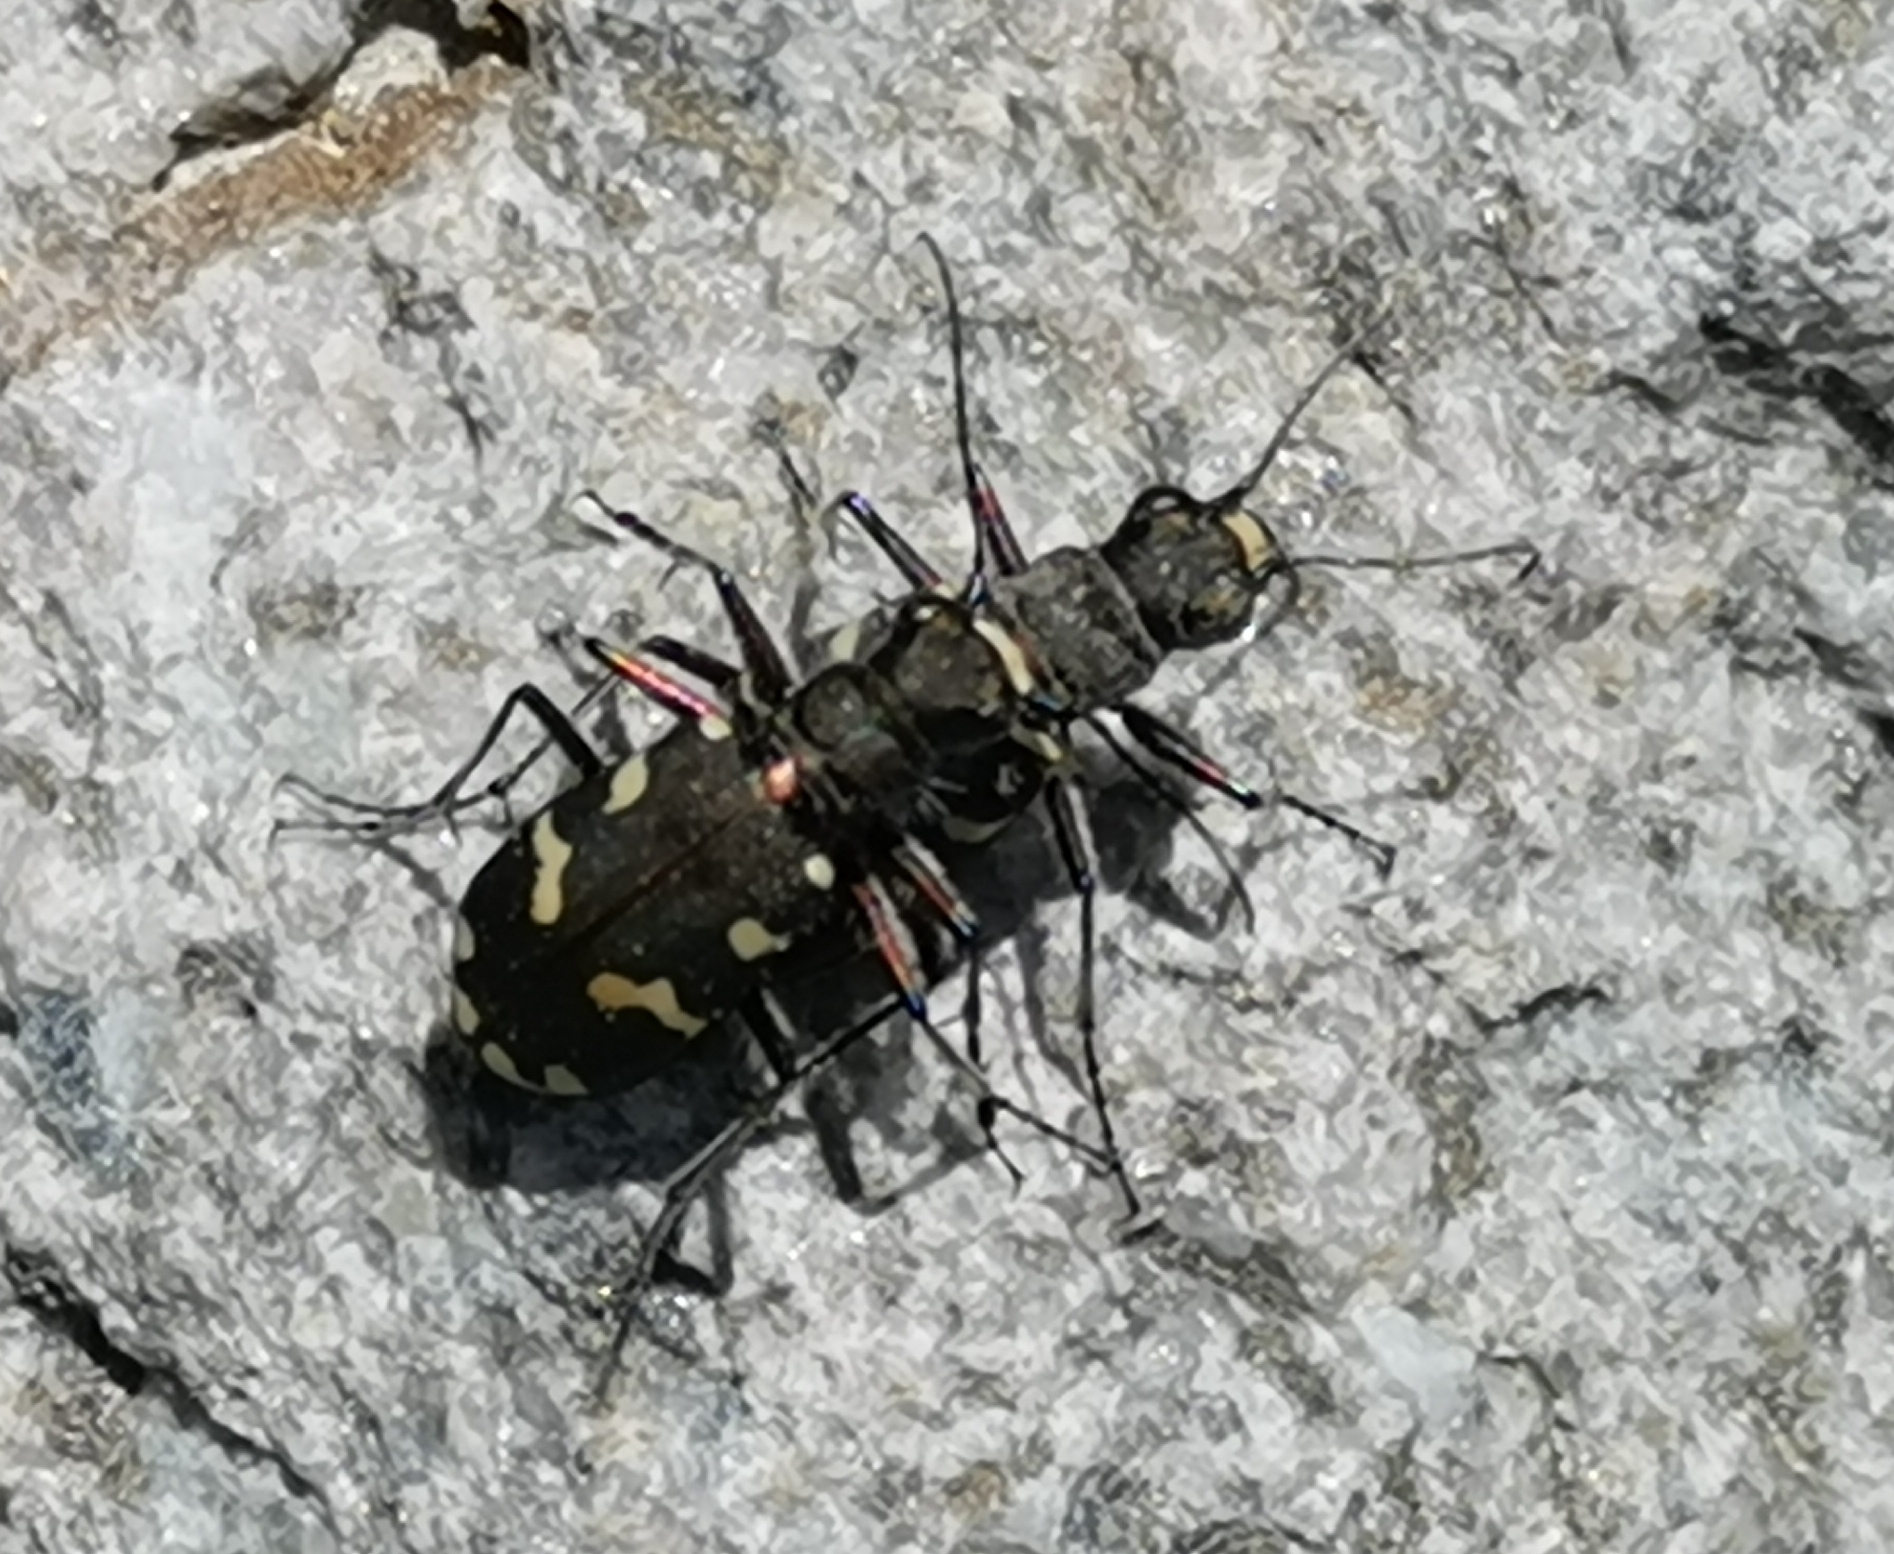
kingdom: Animalia
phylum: Arthropoda
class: Insecta
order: Coleoptera
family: Carabidae
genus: Cicindela
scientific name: Cicindela gallica
